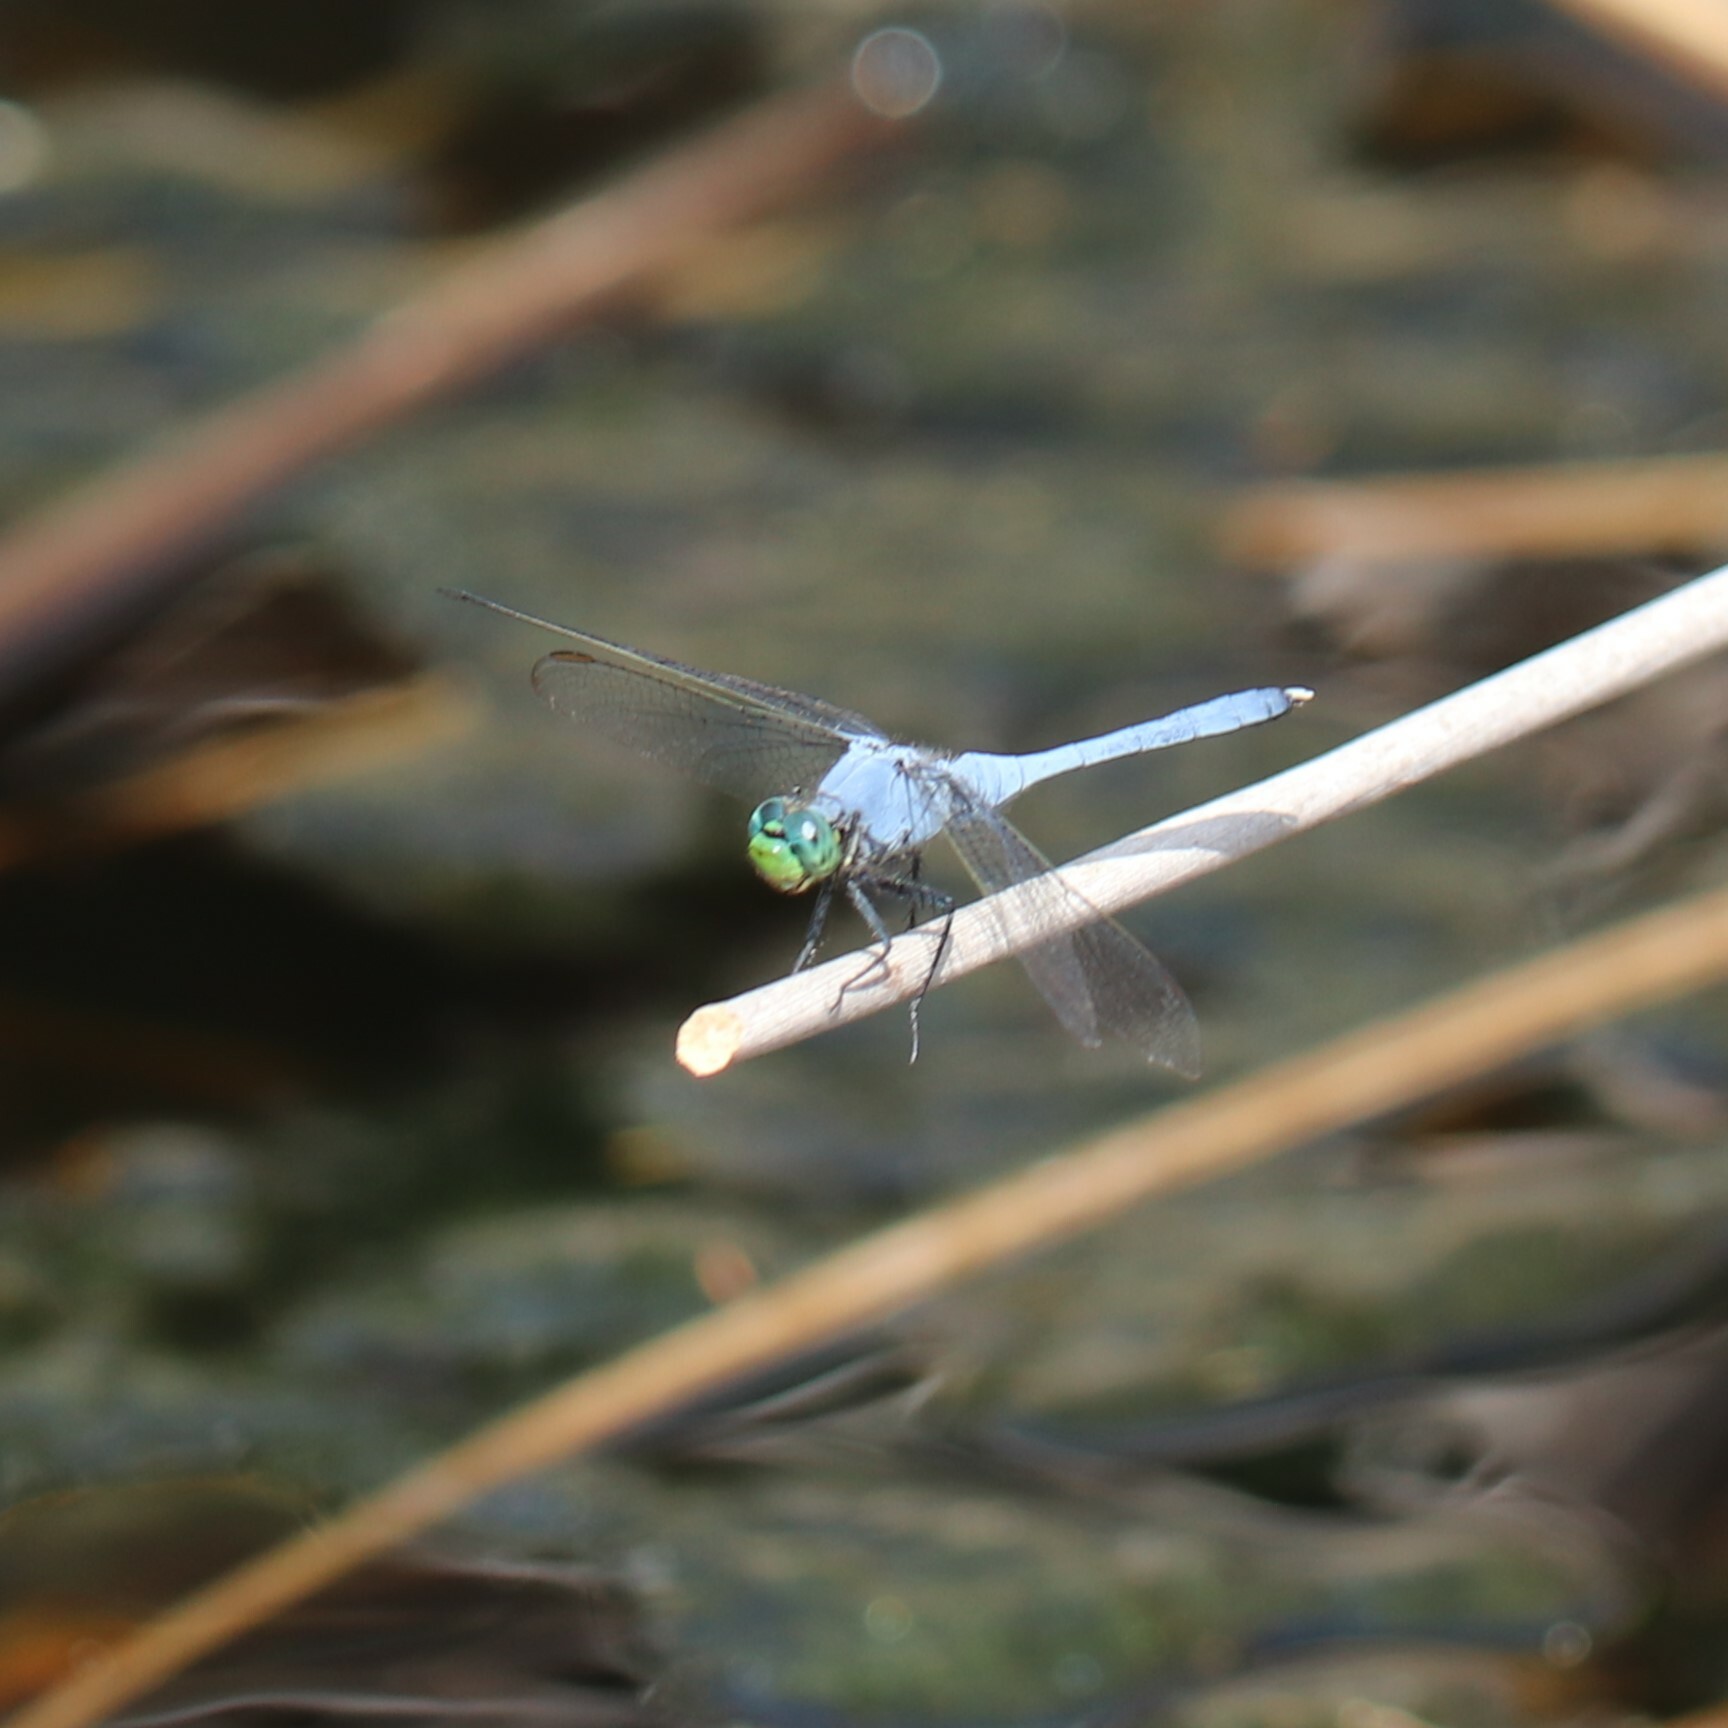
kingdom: Animalia
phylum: Arthropoda
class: Insecta
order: Odonata
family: Libellulidae
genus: Erythemis
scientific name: Erythemis simplicicollis
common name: Eastern pondhawk
